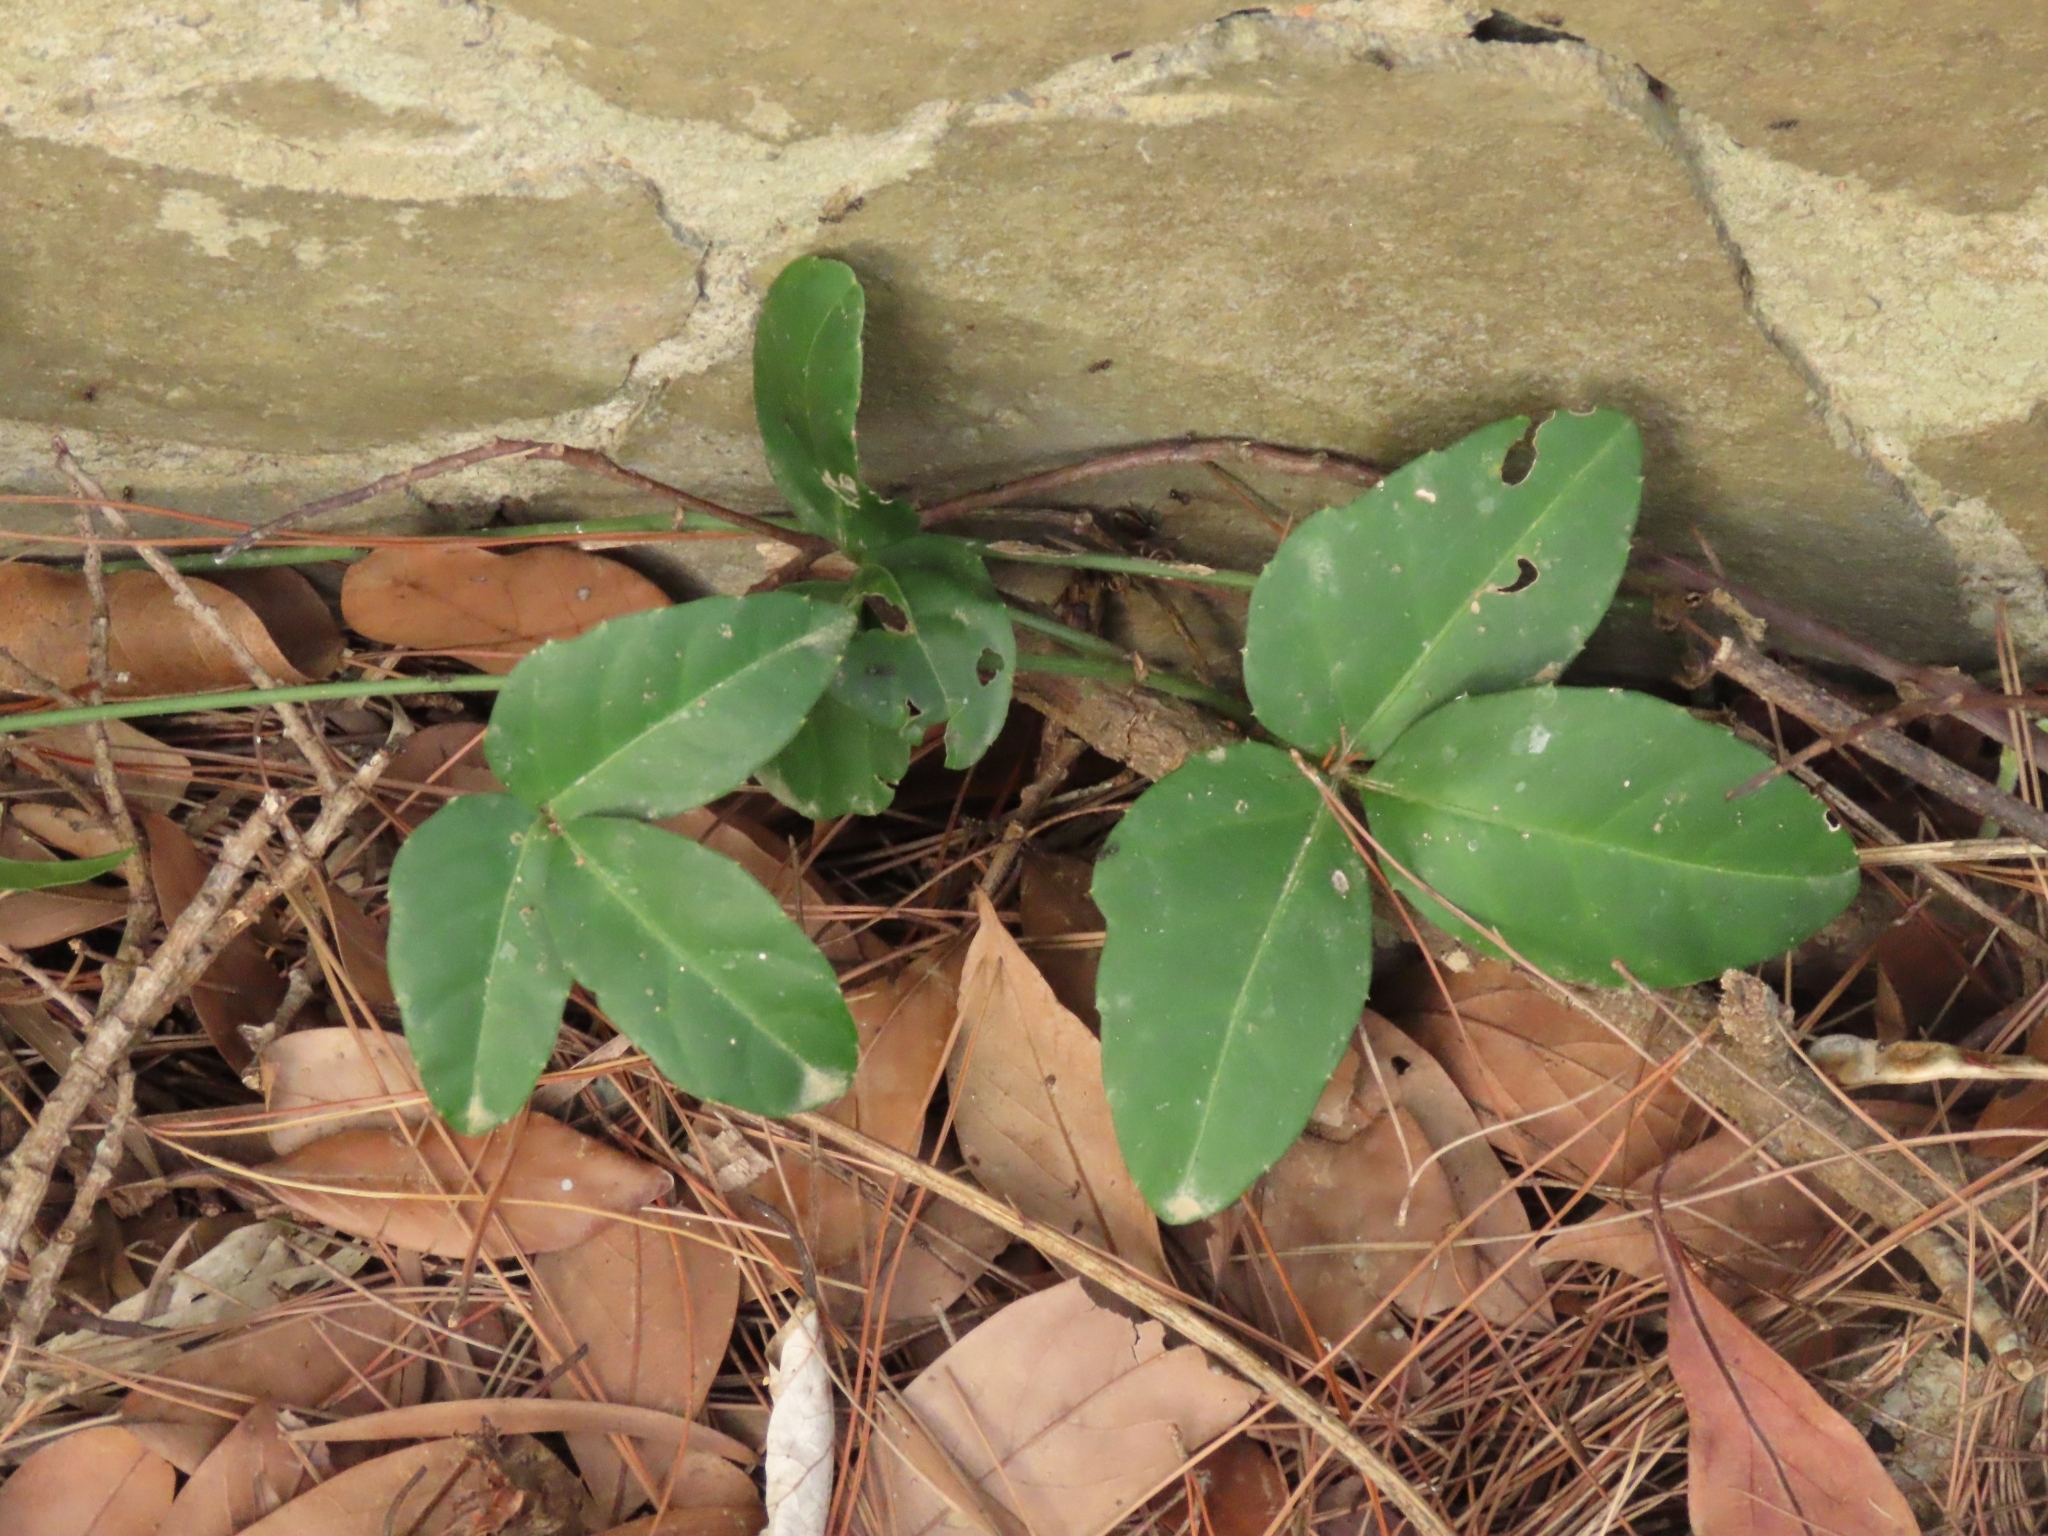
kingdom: Plantae
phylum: Tracheophyta
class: Magnoliopsida
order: Vitales
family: Vitaceae
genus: Tetrastigma
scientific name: Tetrastigma formosanum
